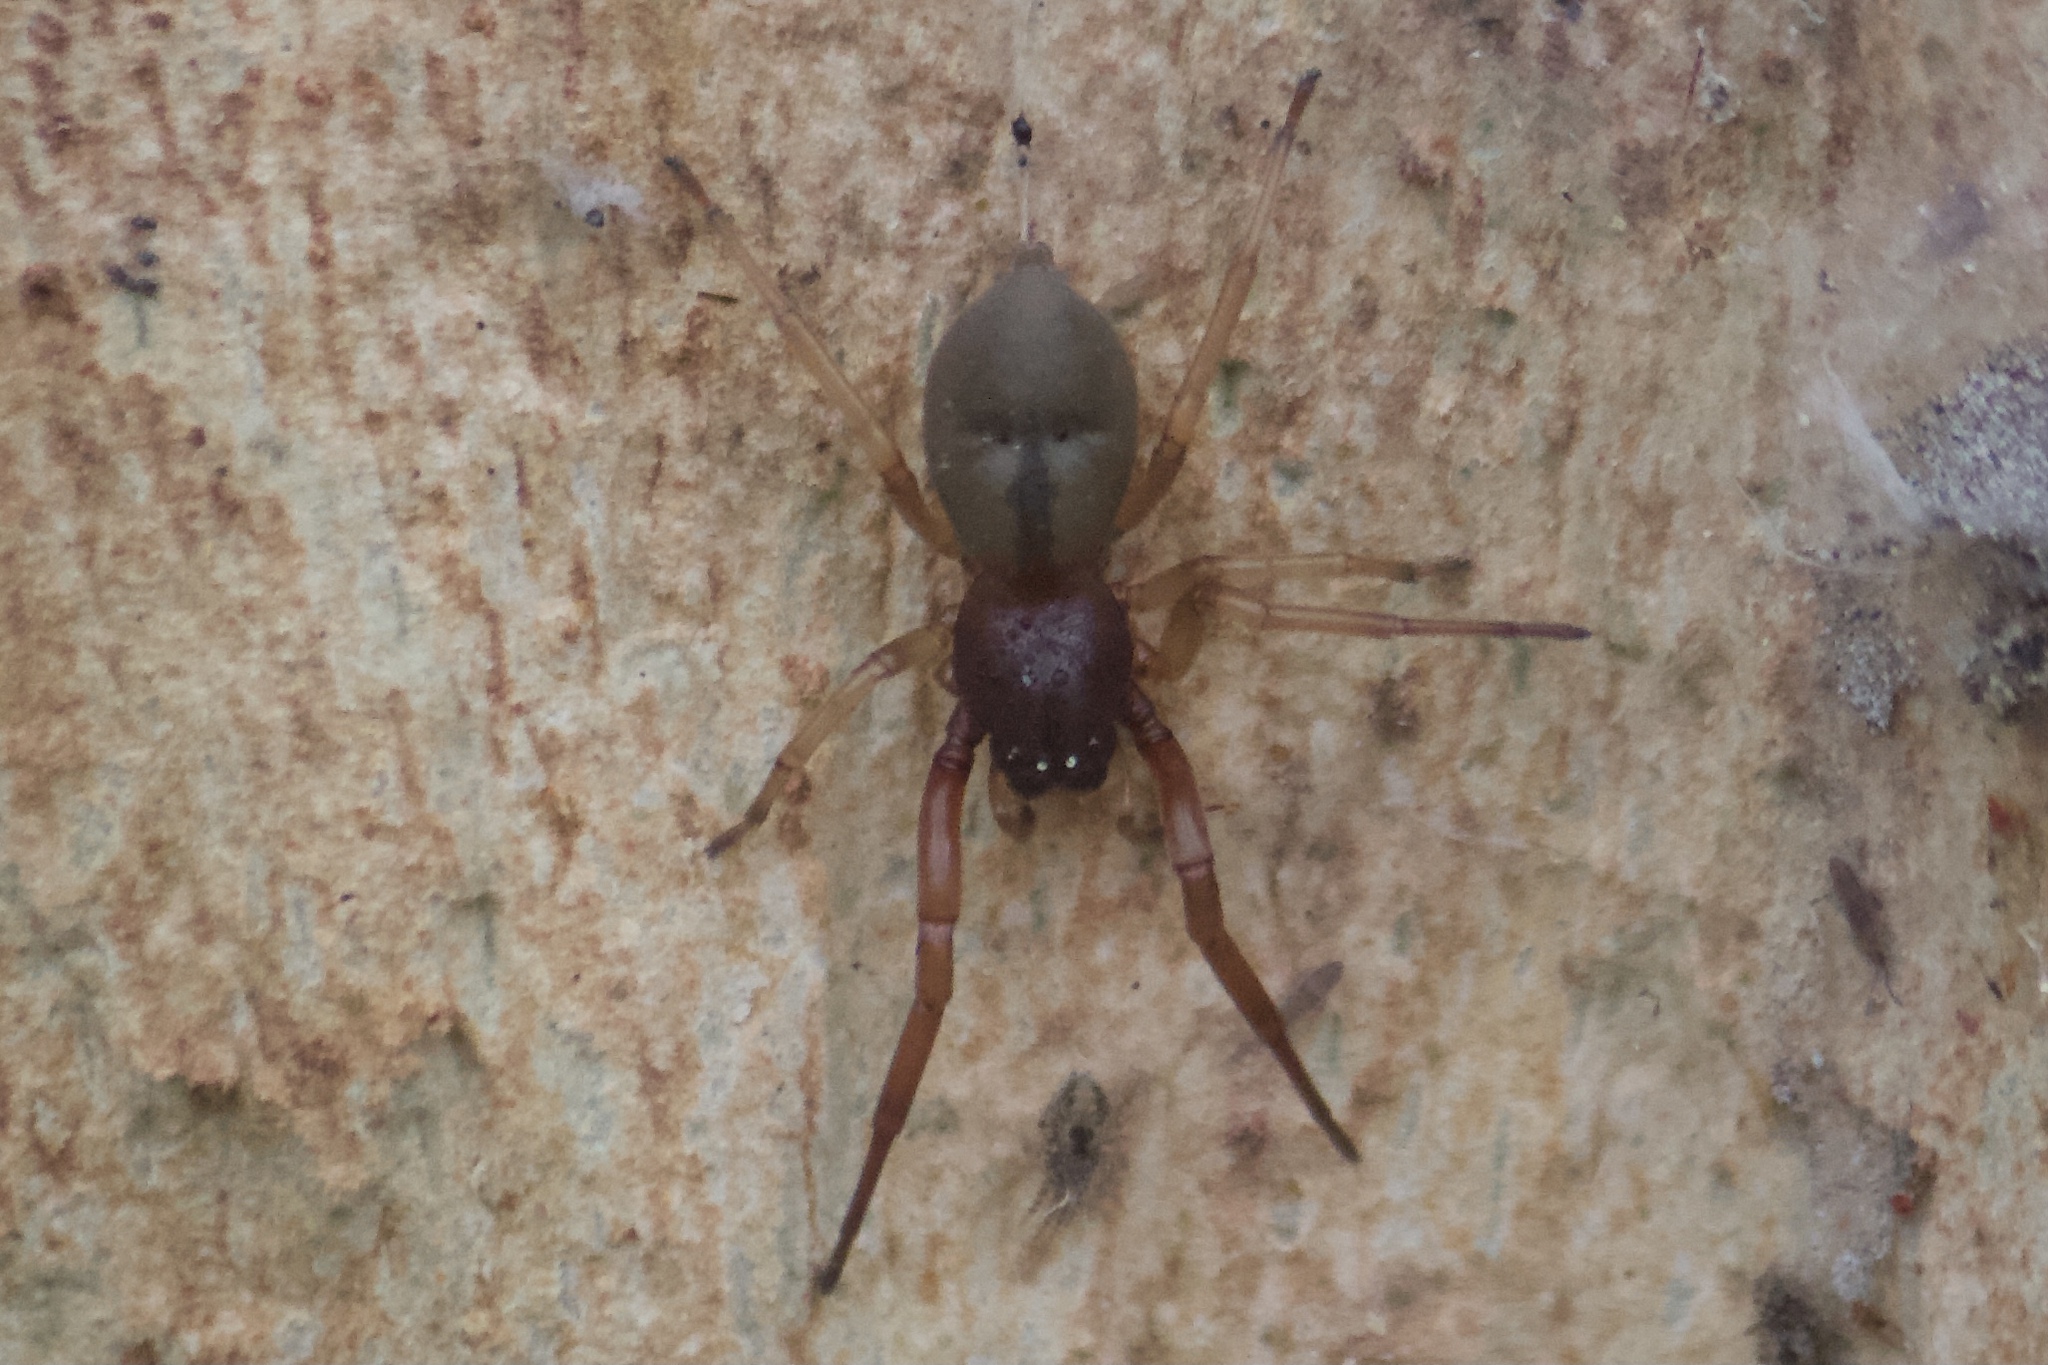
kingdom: Animalia
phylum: Arthropoda
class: Arachnida
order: Araneae
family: Trachelidae
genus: Trachelas
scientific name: Trachelas pacificus
